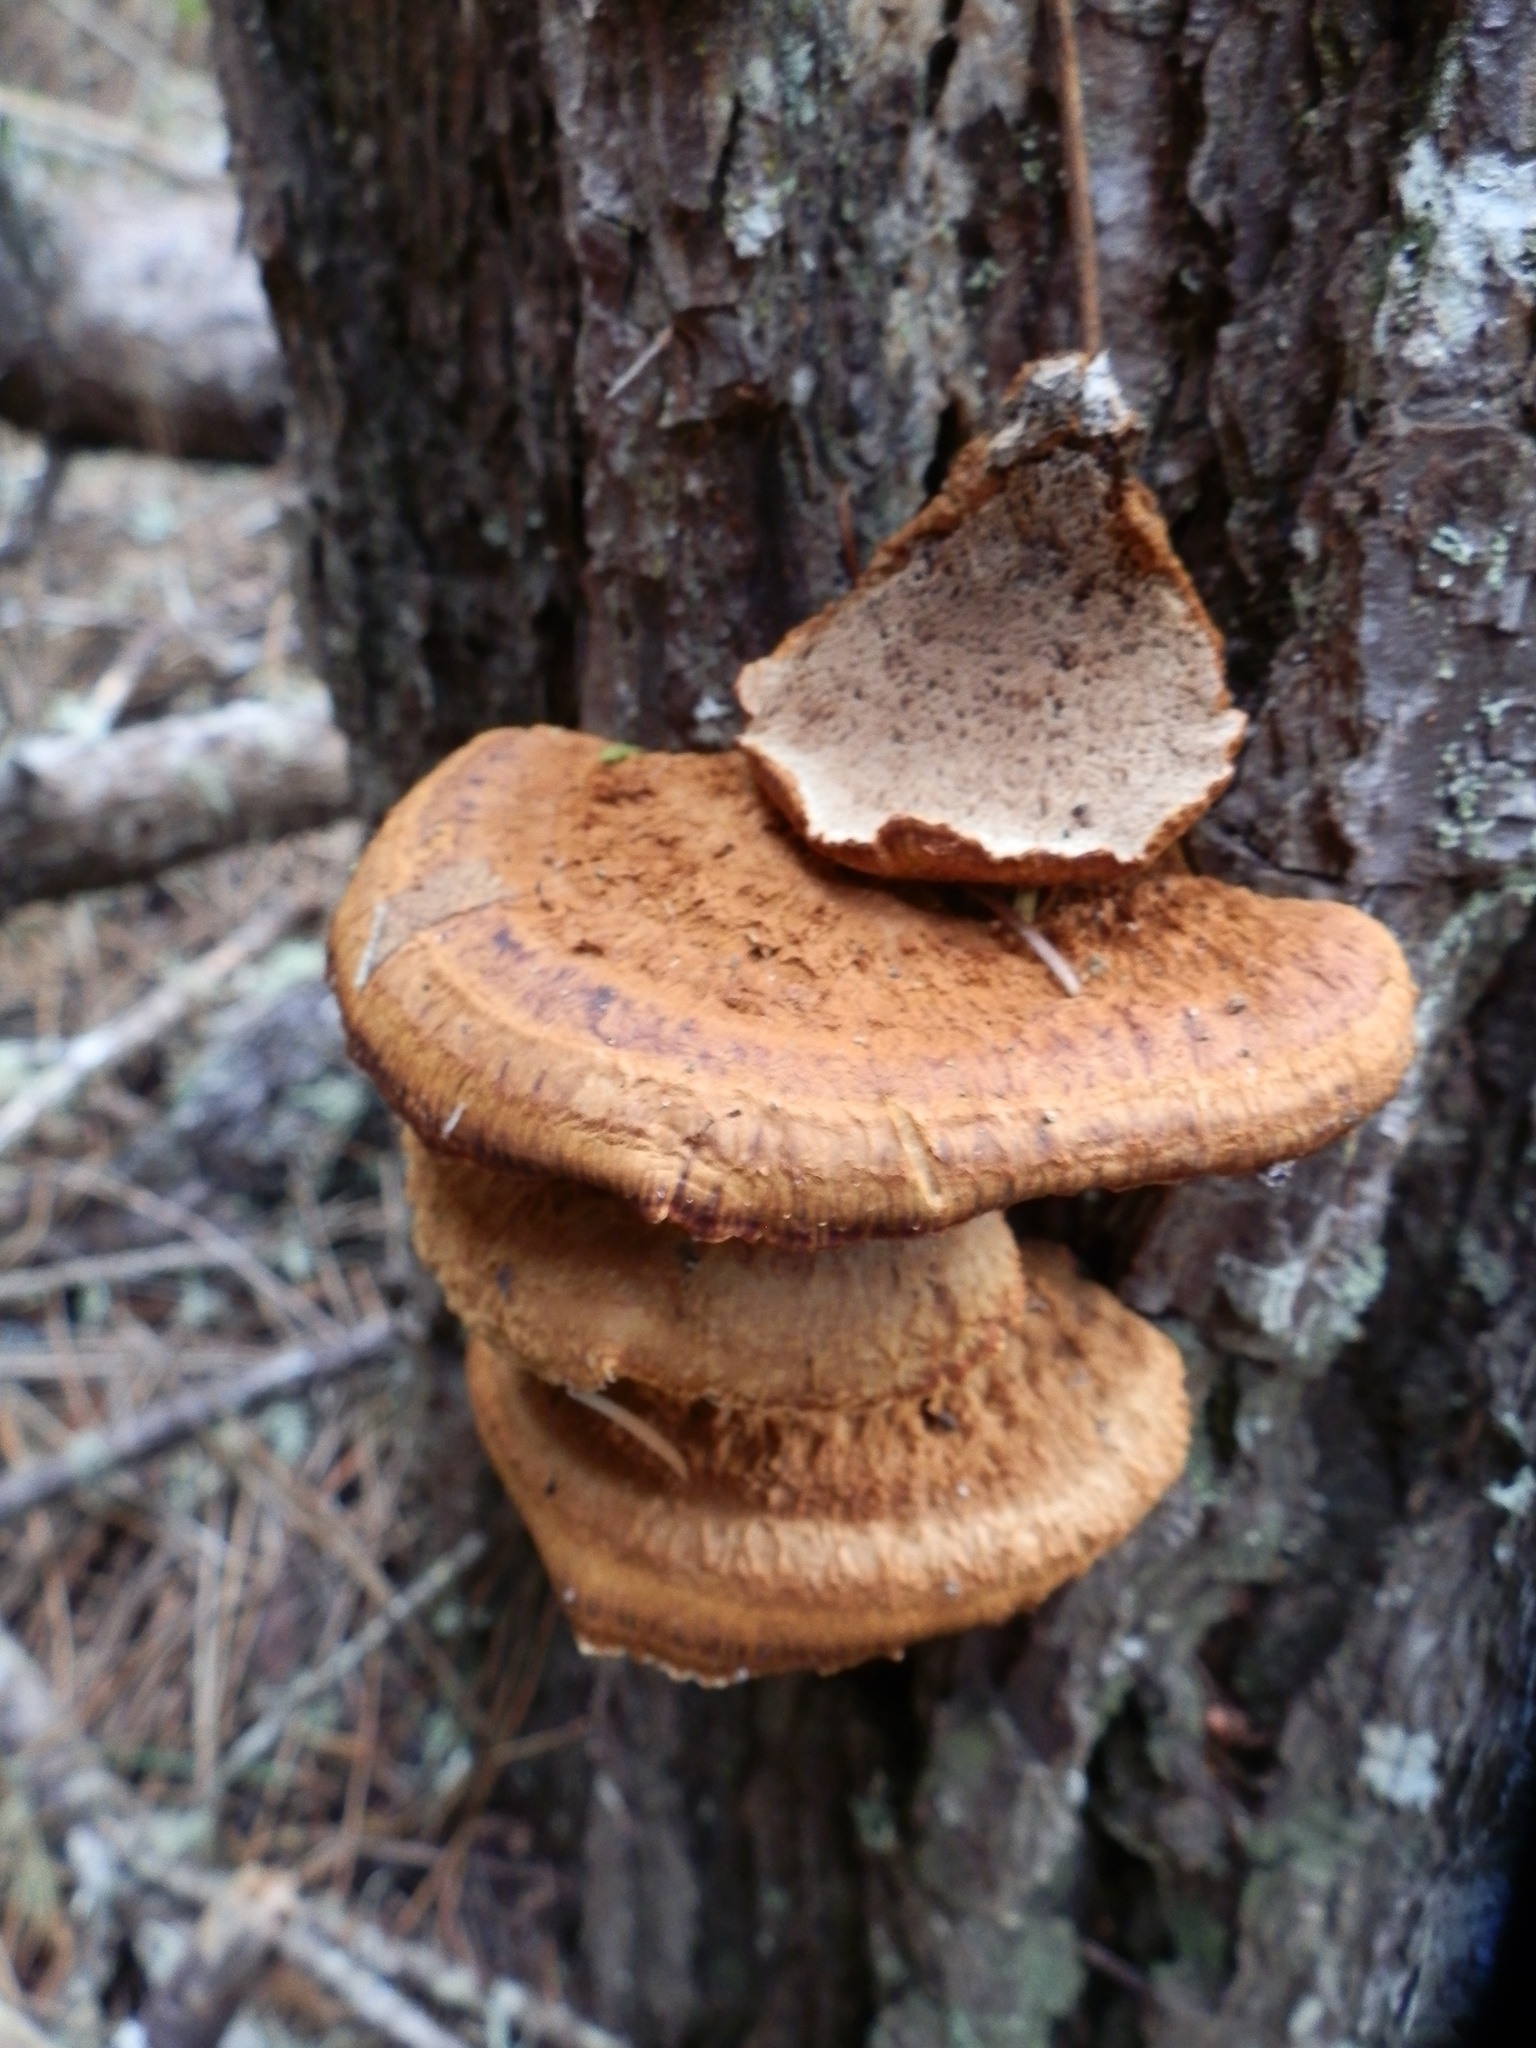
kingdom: Fungi
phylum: Basidiomycota
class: Agaricomycetes
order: Hymenochaetales
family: Hymenochaetaceae
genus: Onnia
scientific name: Onnia triquetra
